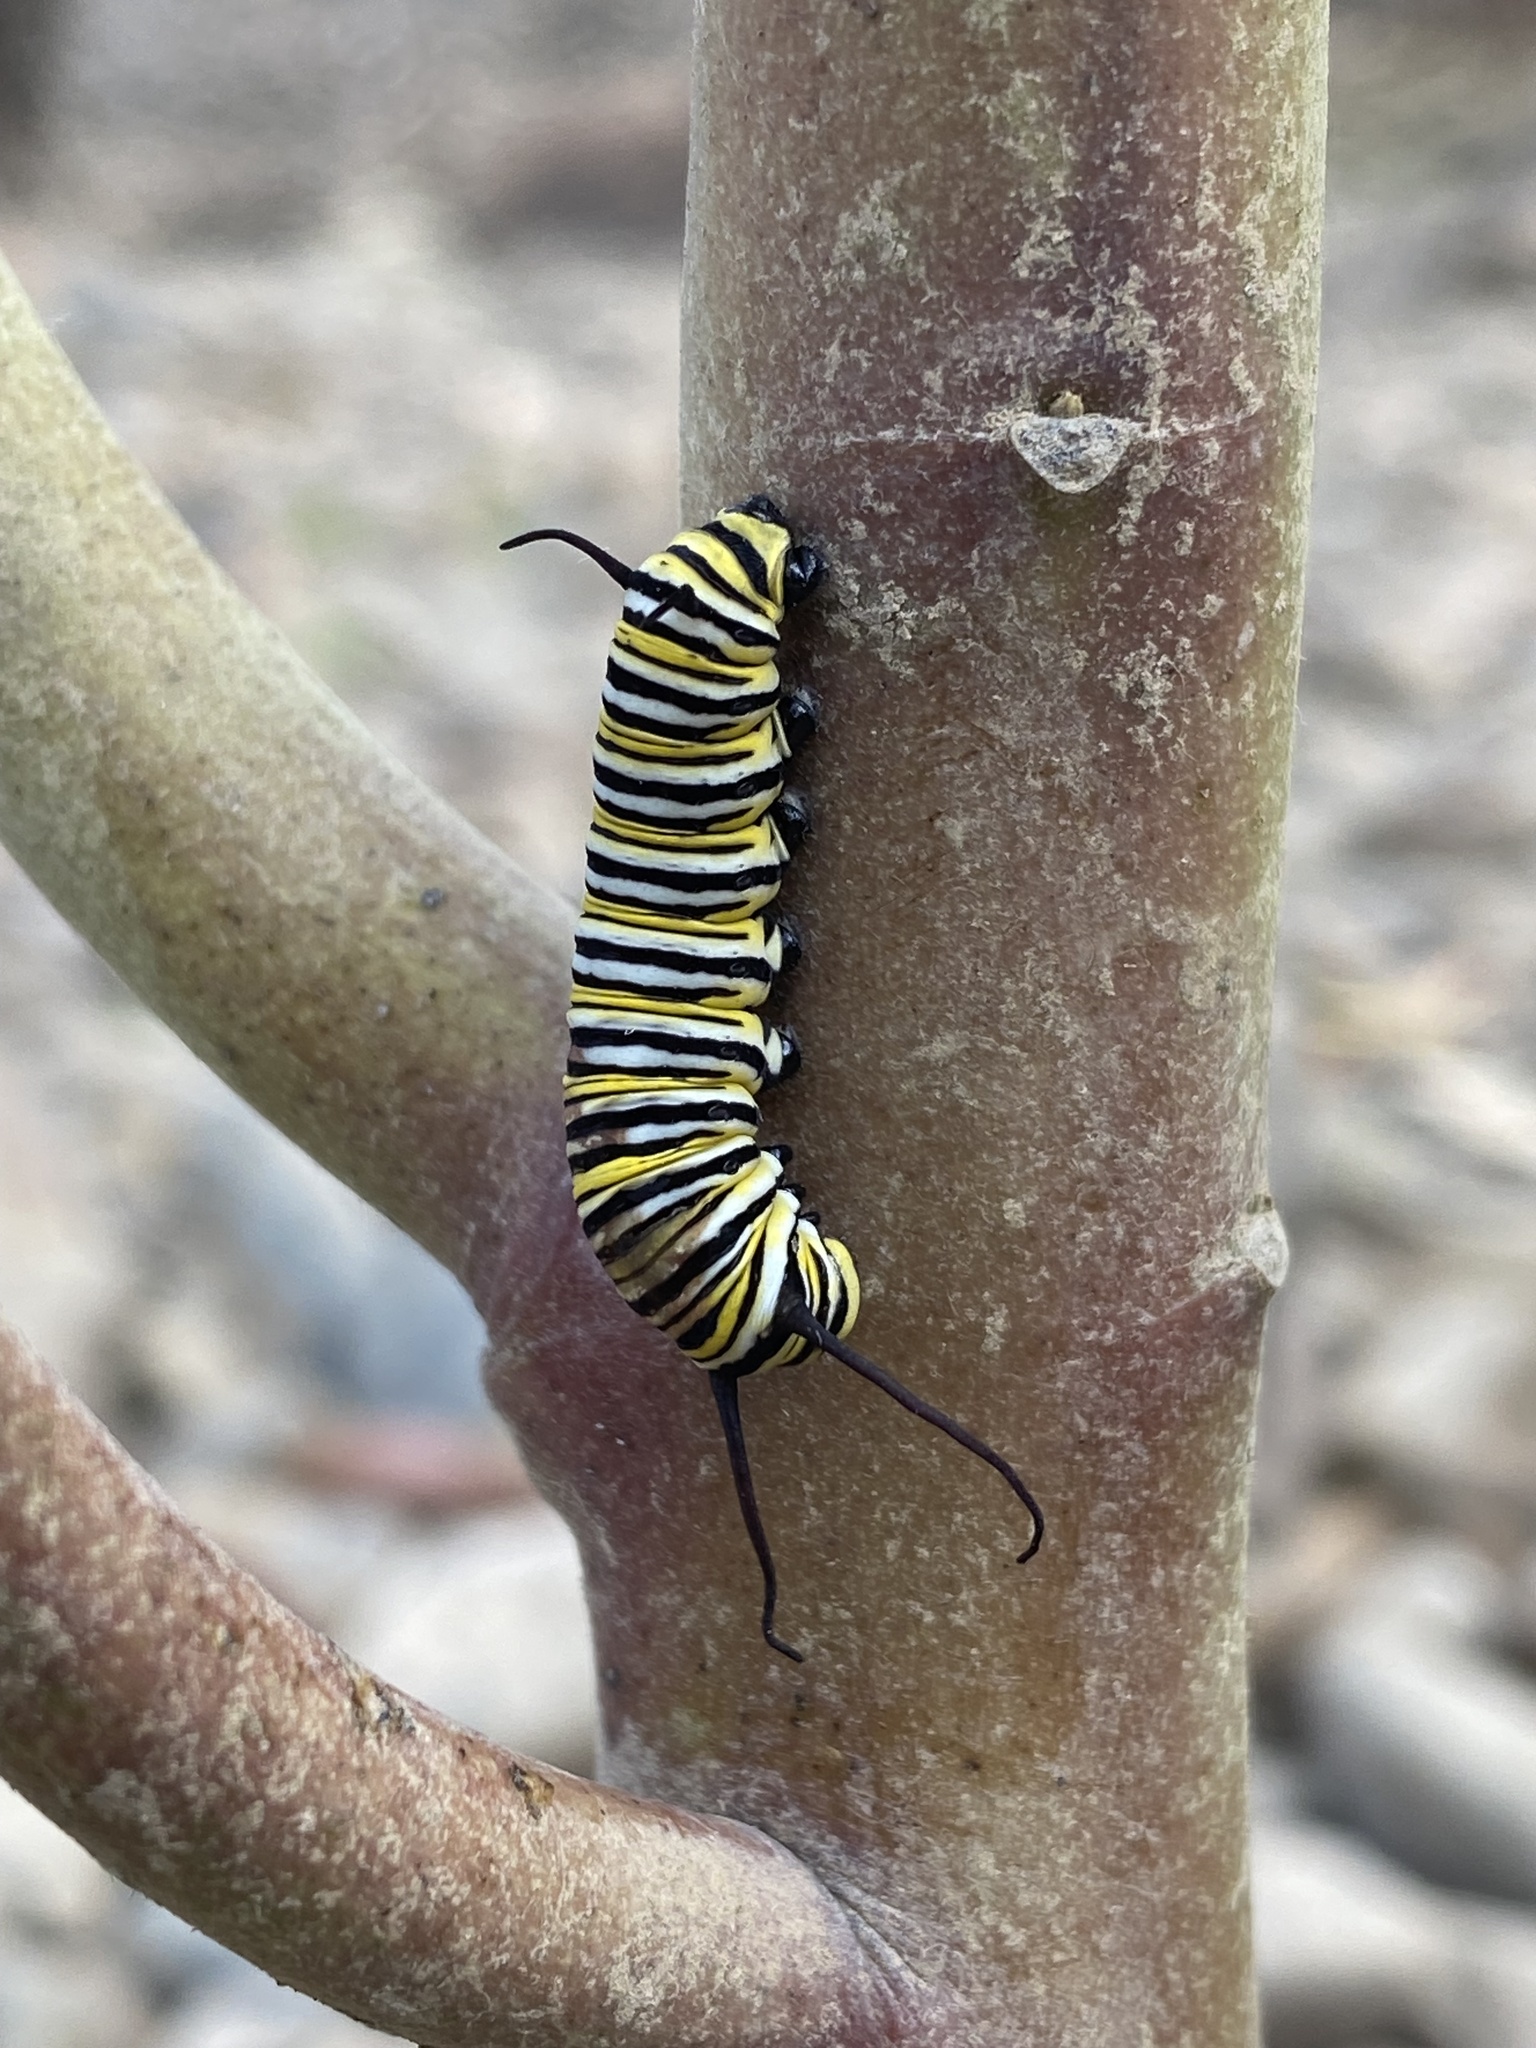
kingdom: Animalia
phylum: Arthropoda
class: Insecta
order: Lepidoptera
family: Nymphalidae
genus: Danaus
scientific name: Danaus plexippus
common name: Monarch
